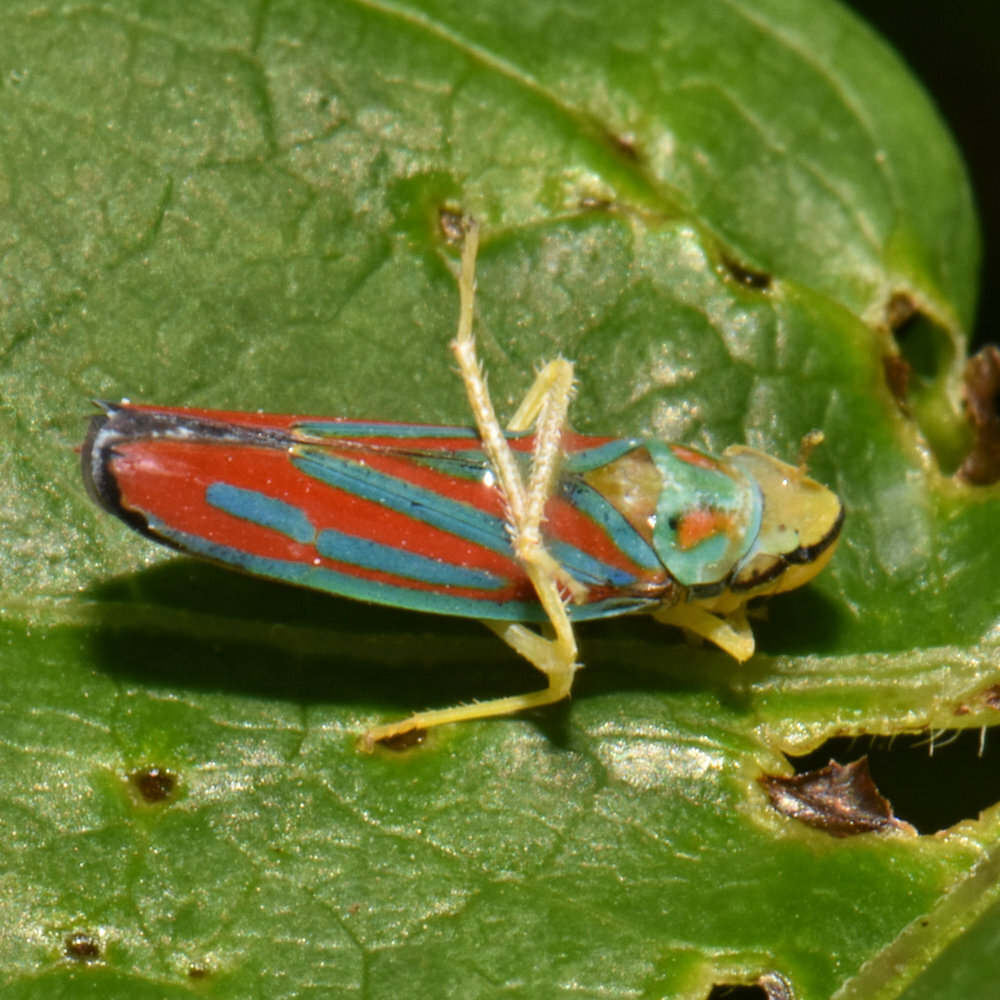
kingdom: Animalia
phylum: Arthropoda
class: Insecta
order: Hemiptera
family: Cicadellidae
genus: Graphocephala
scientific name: Graphocephala coccinea
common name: Candy-striped leafhopper
